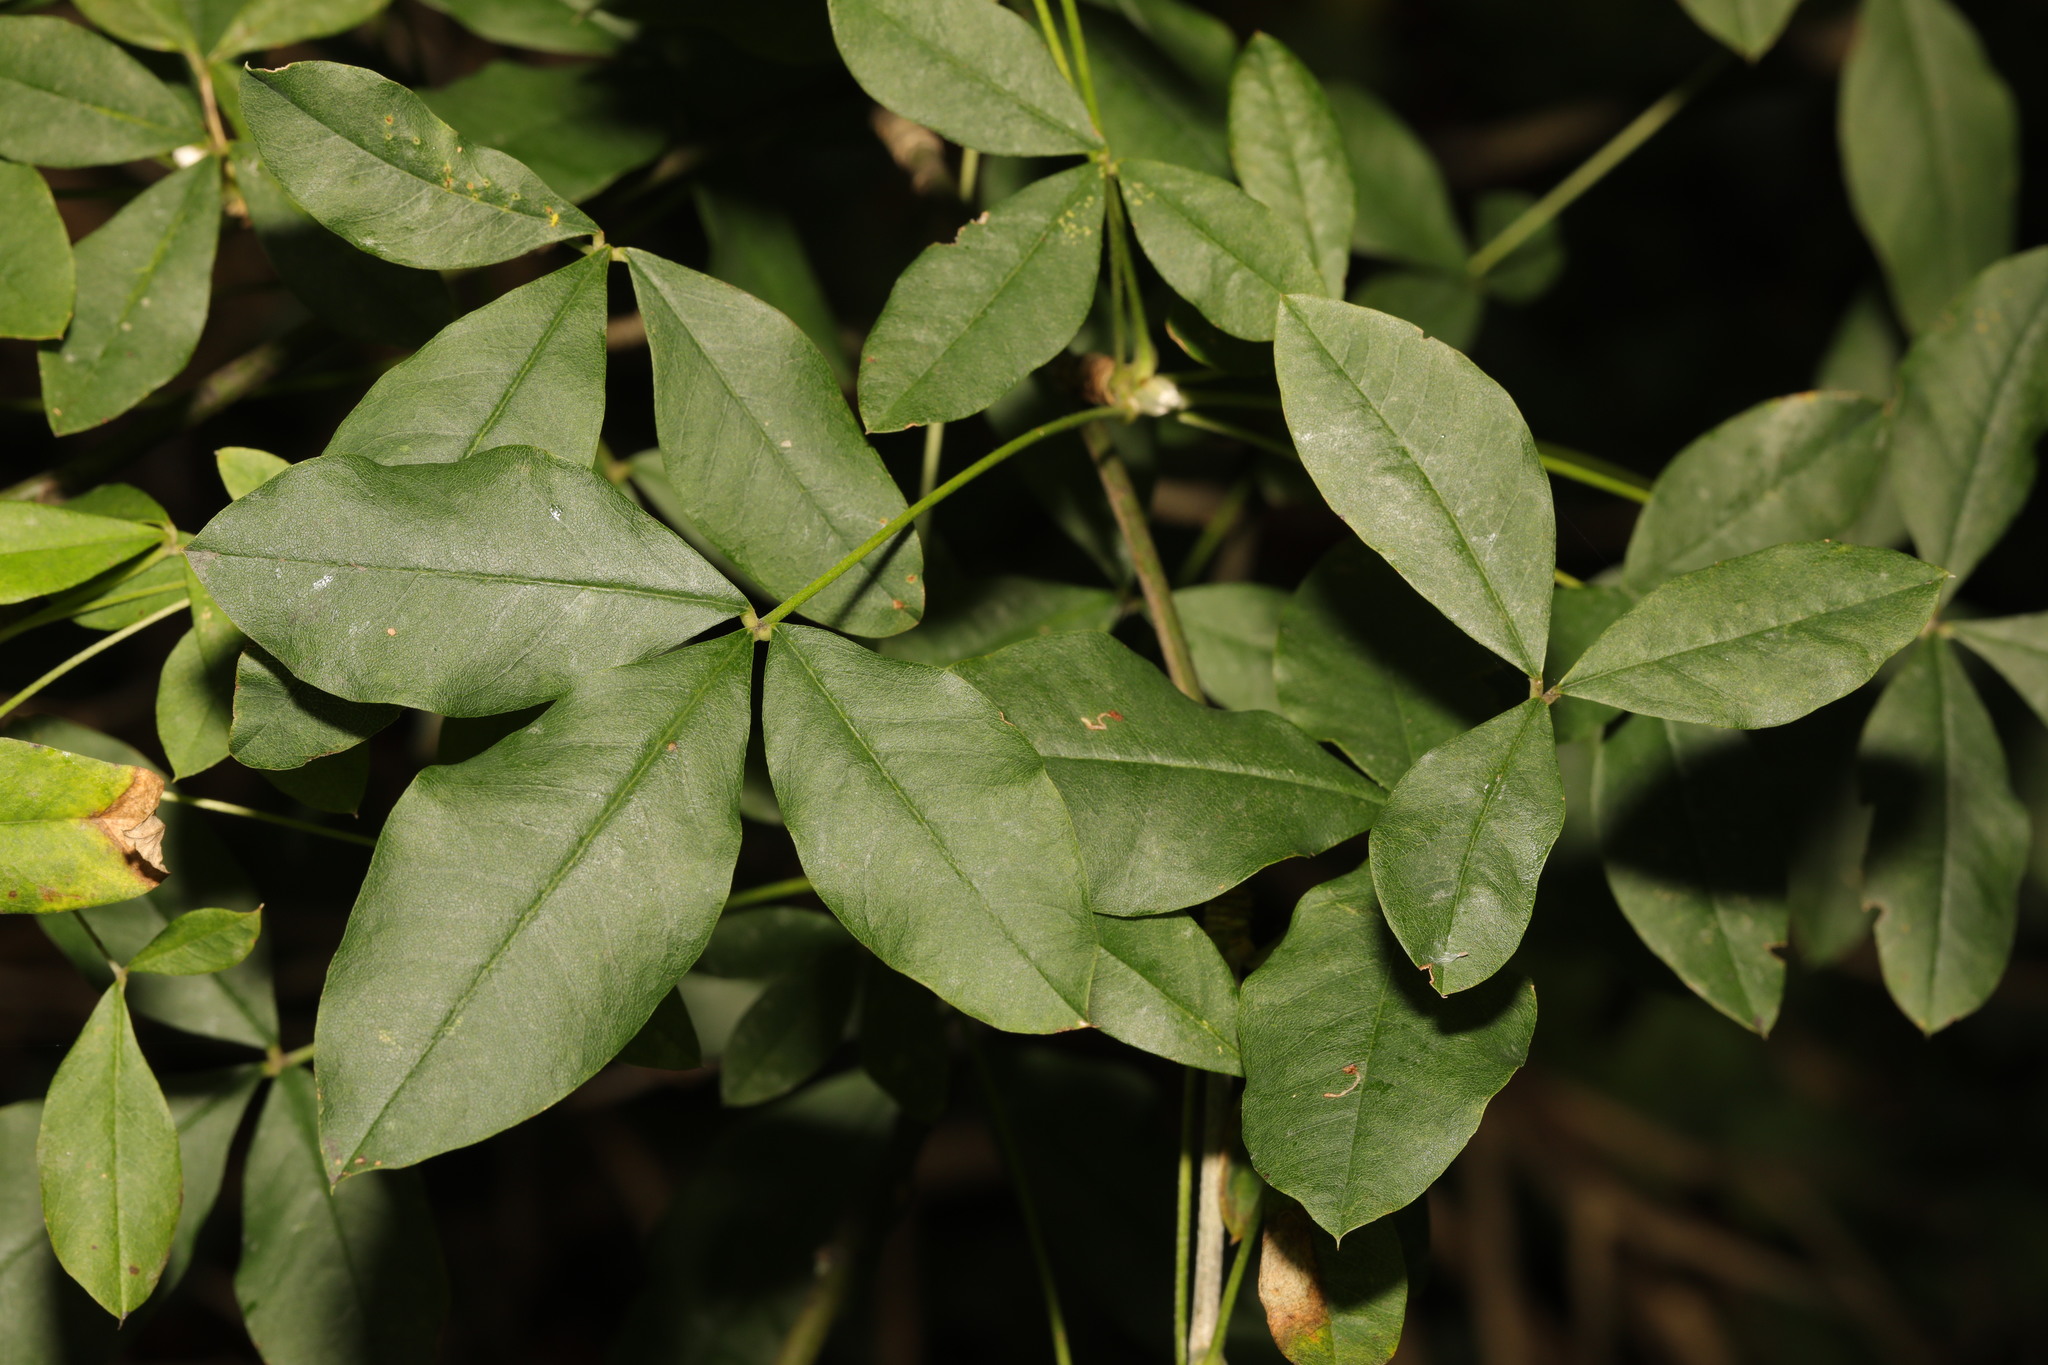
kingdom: Plantae
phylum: Tracheophyta
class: Magnoliopsida
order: Fabales
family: Fabaceae
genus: Laburnum
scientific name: Laburnum anagyroides
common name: Laburnum
